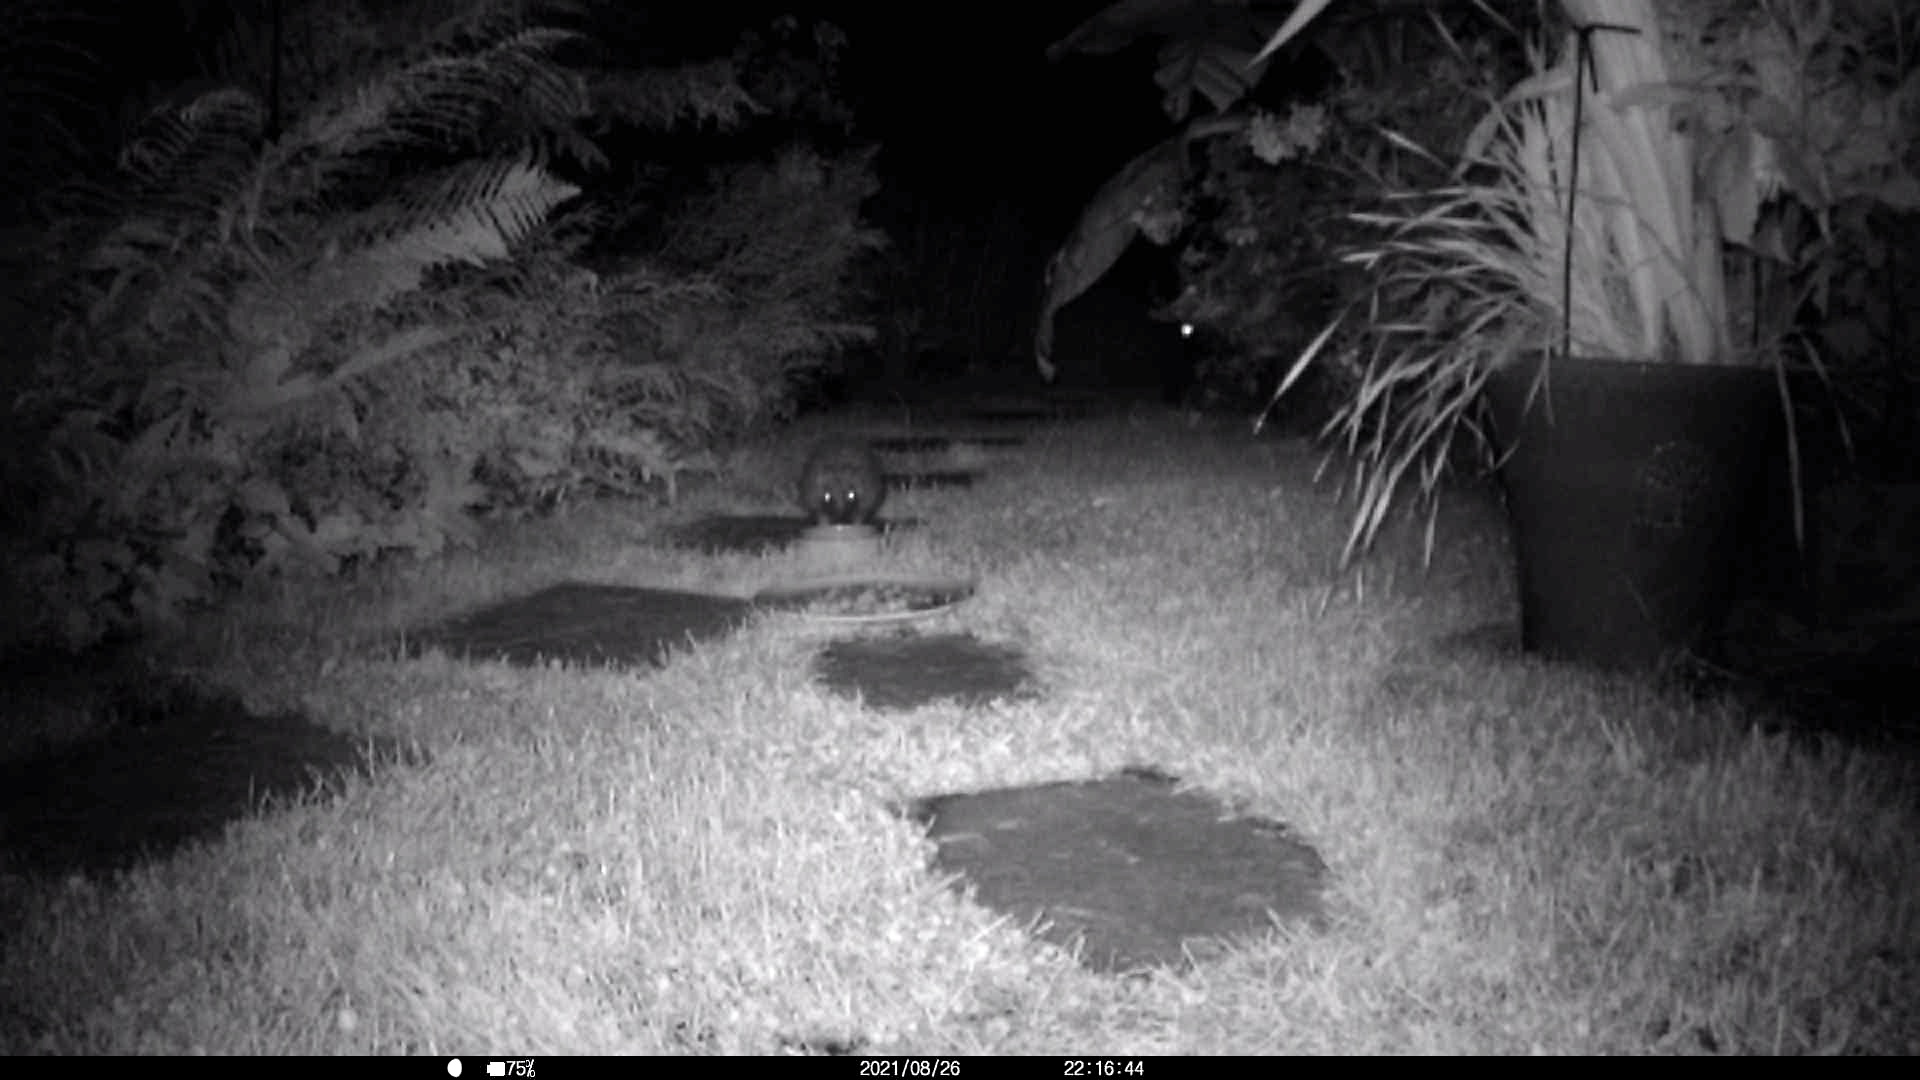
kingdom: Animalia
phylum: Chordata
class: Mammalia
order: Erinaceomorpha
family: Erinaceidae
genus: Erinaceus
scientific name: Erinaceus europaeus
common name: West european hedgehog
